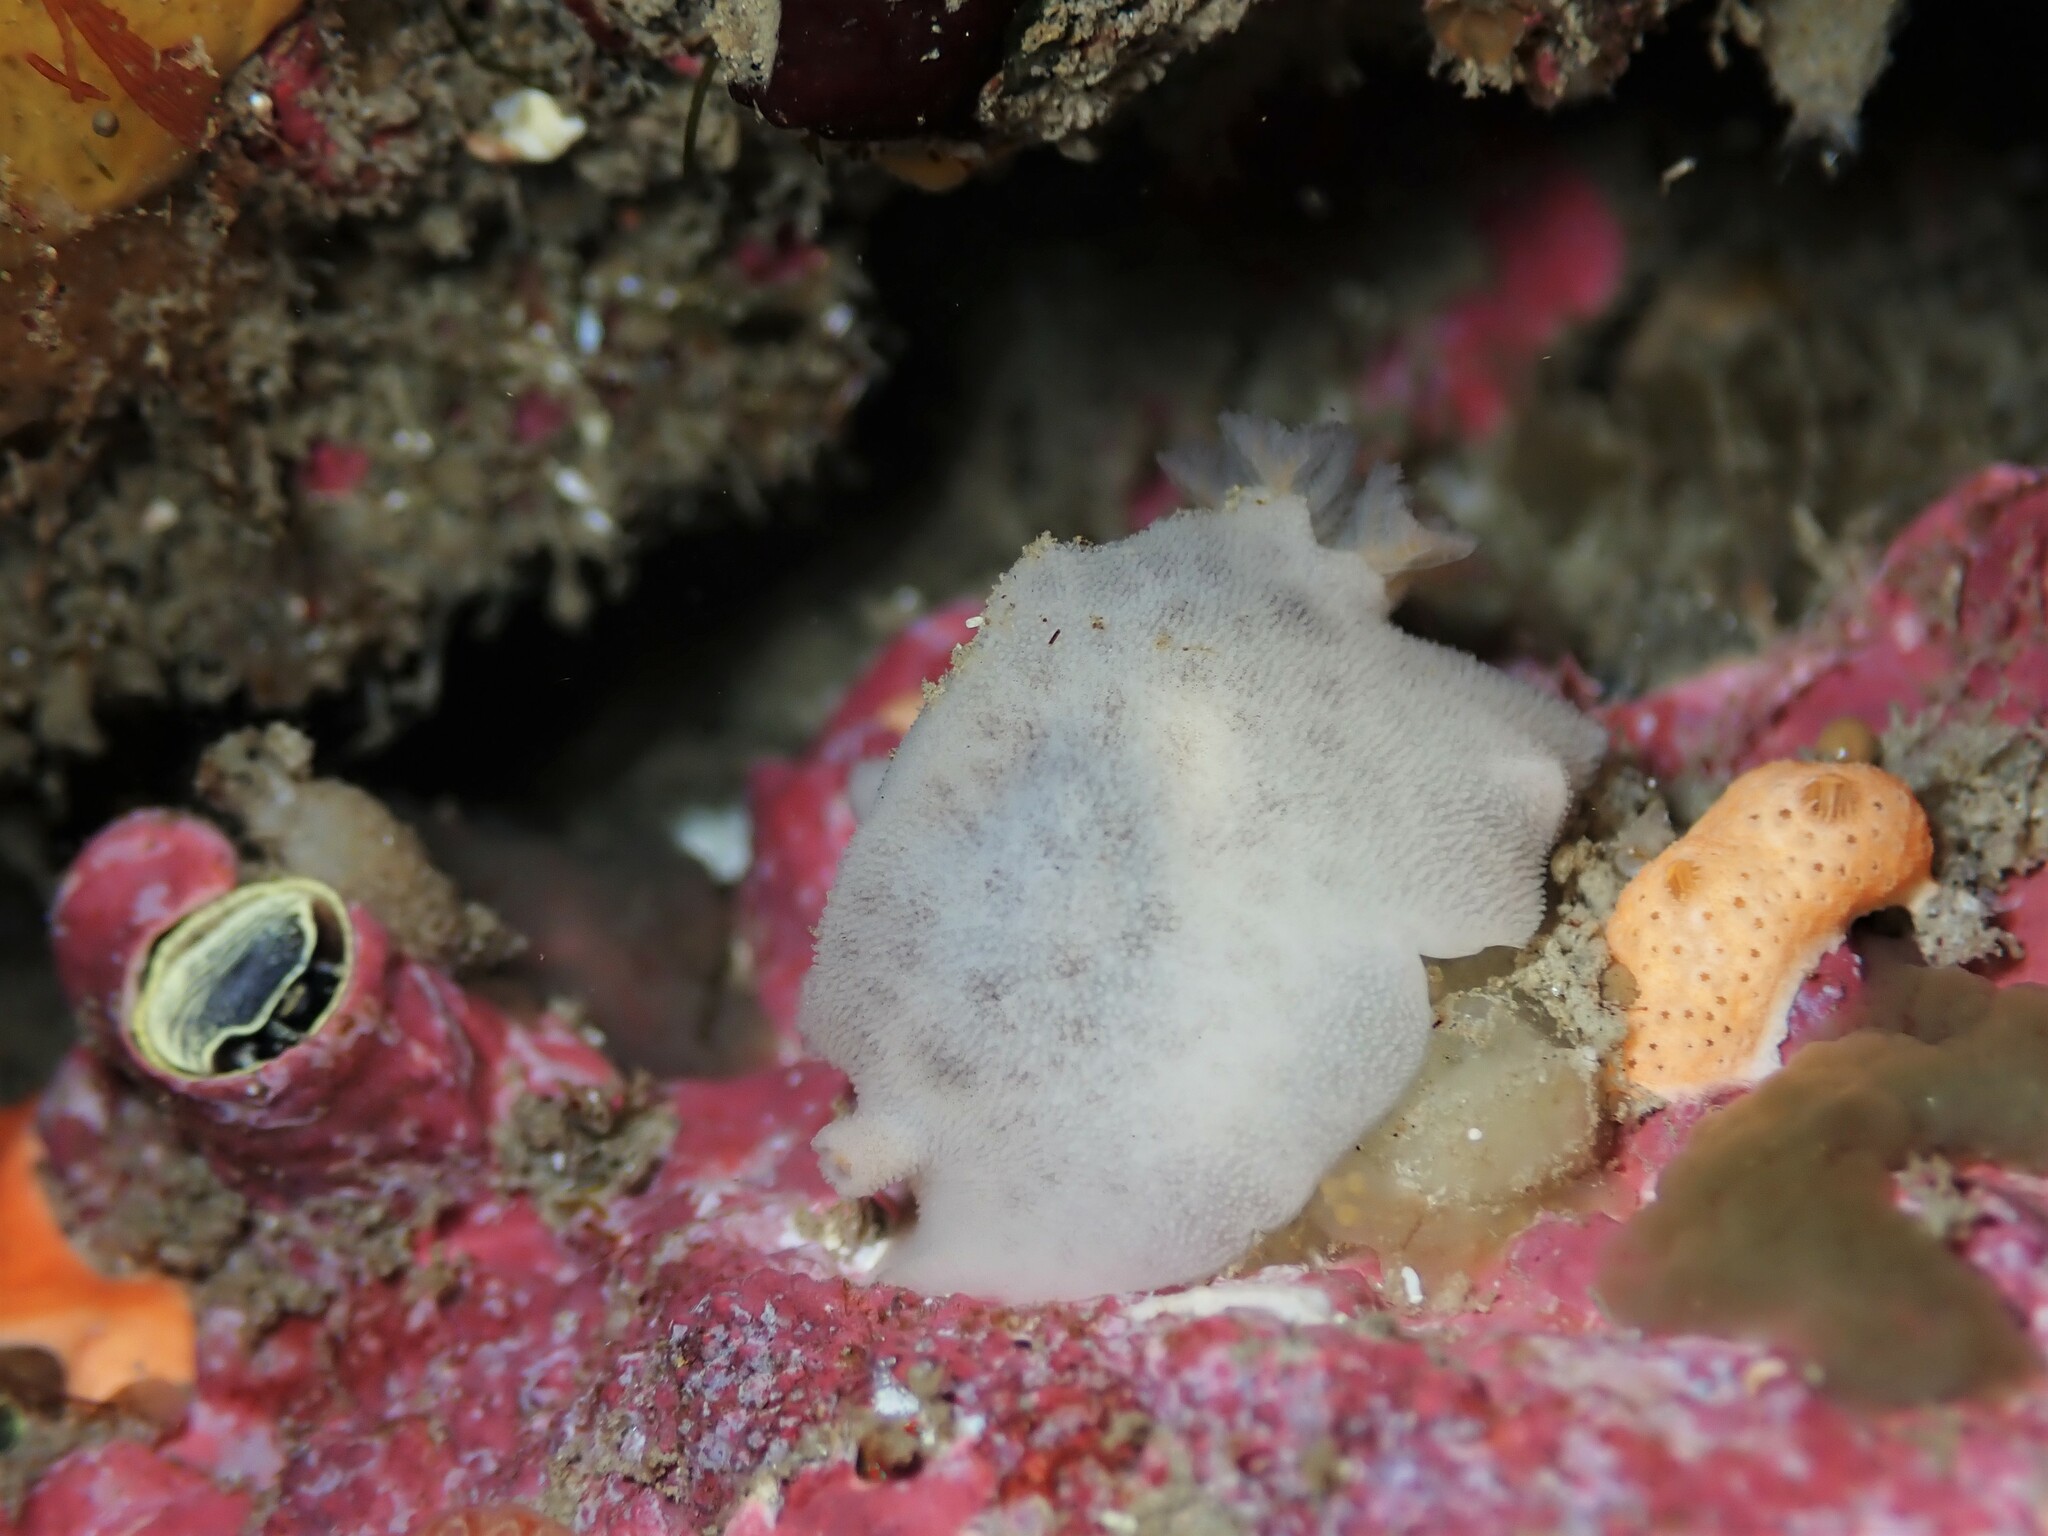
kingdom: Animalia
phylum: Mollusca
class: Gastropoda
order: Nudibranchia
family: Discodorididae
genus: Atagema
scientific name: Atagema carinata
